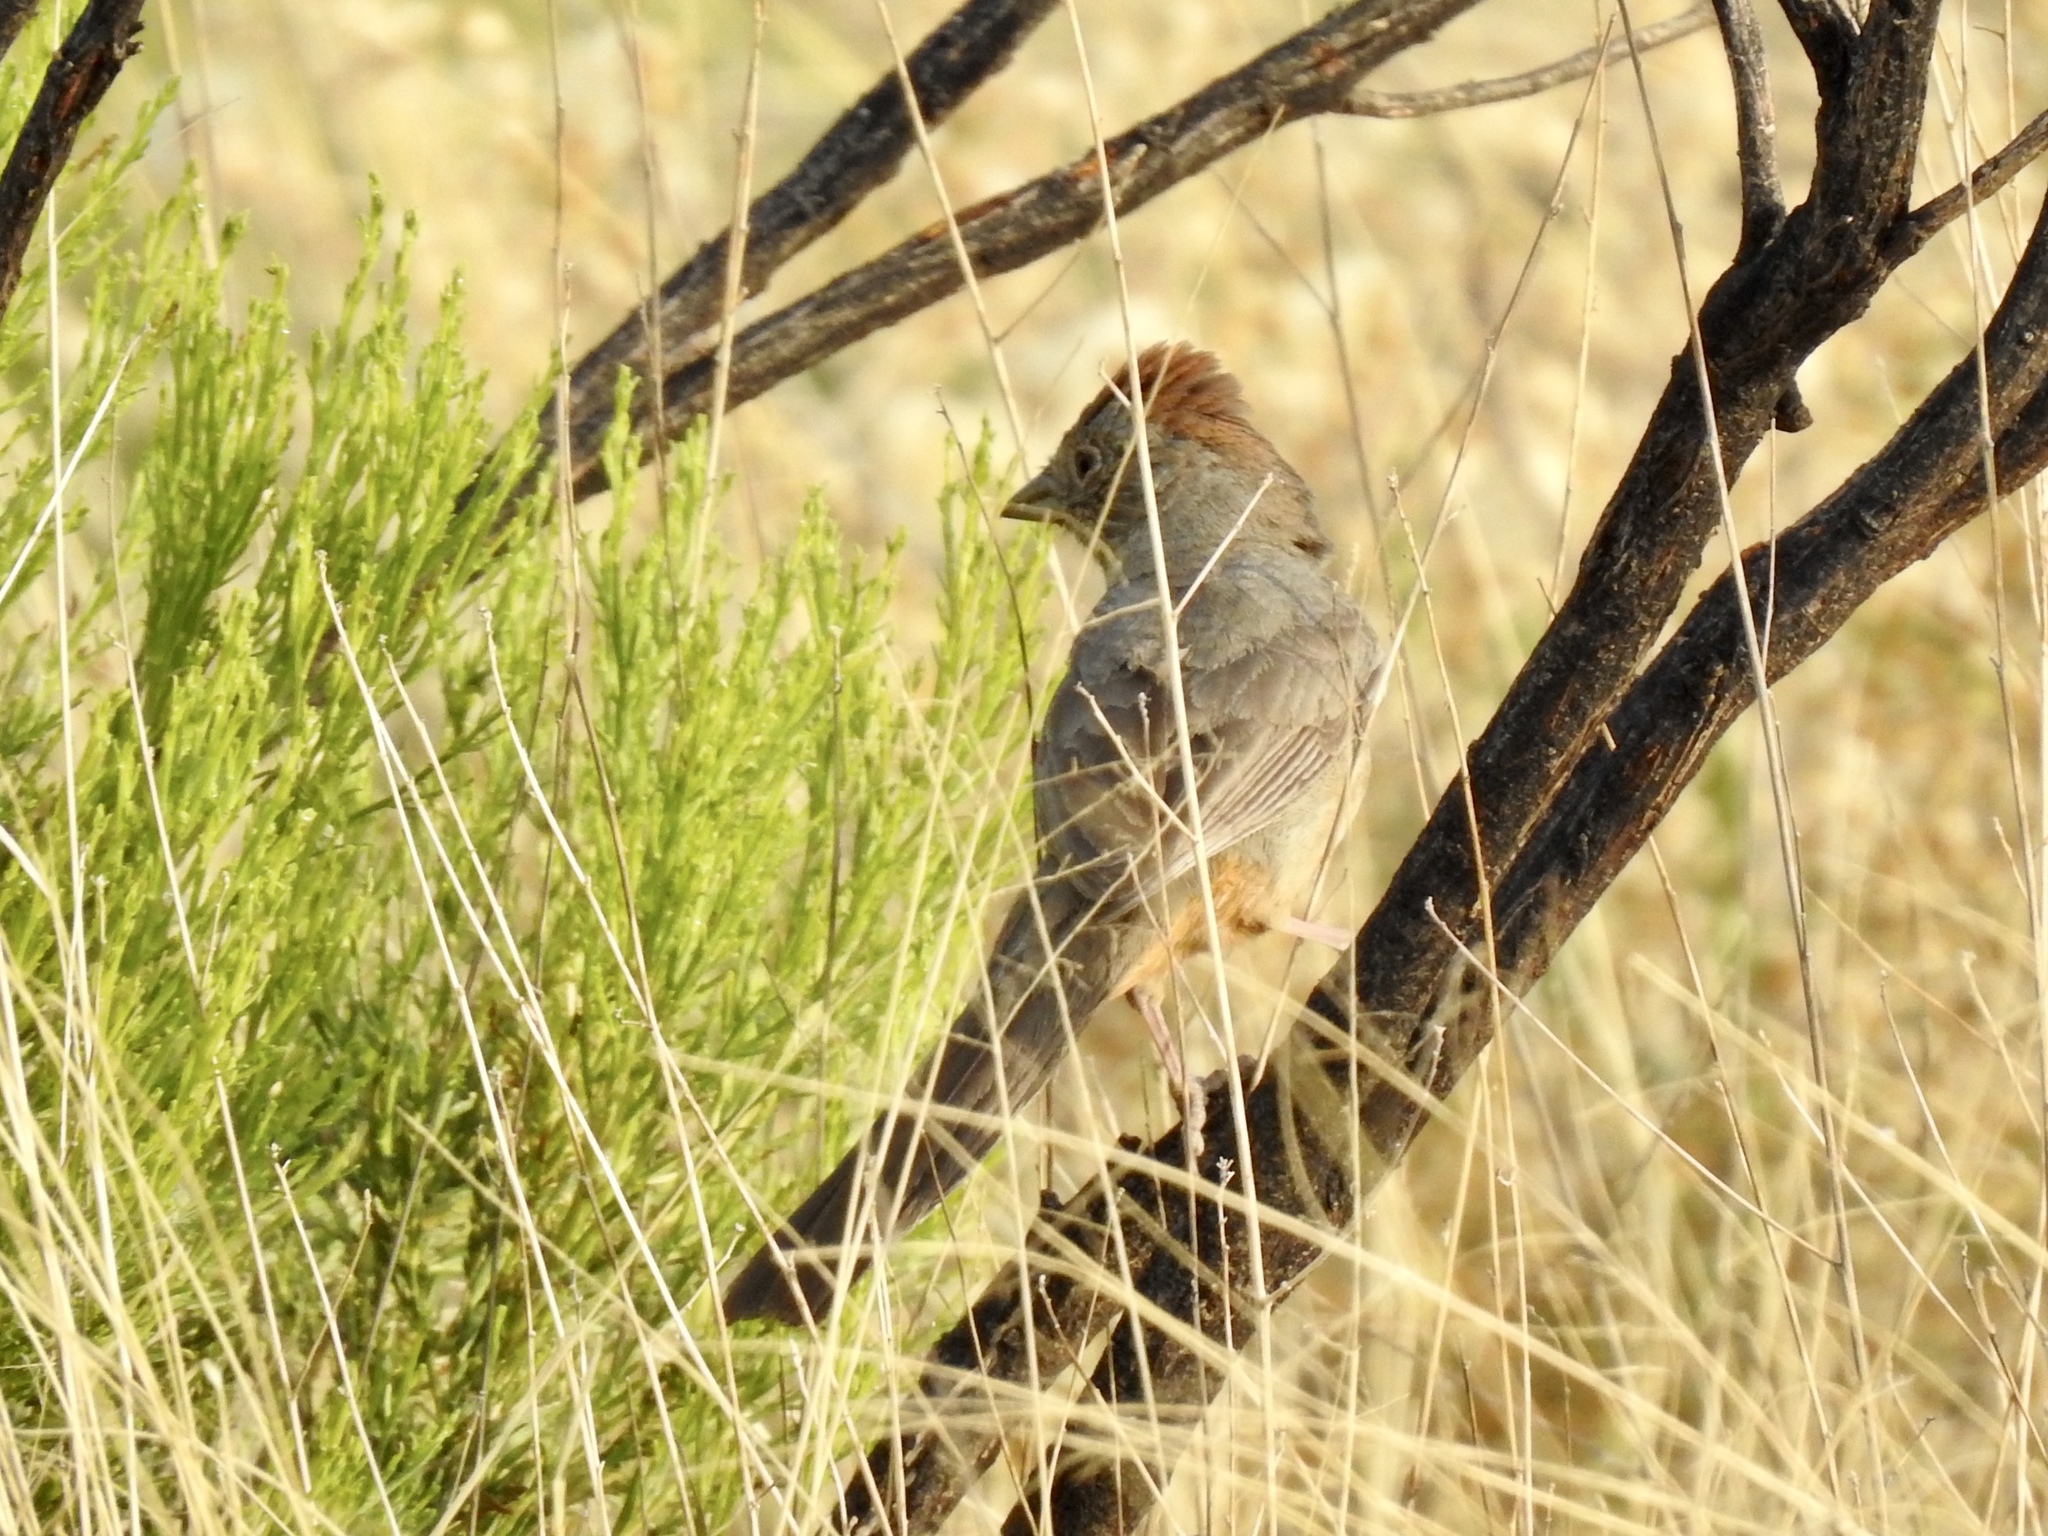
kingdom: Animalia
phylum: Chordata
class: Aves
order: Passeriformes
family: Passerellidae
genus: Melozone
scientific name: Melozone fusca
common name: Canyon towhee
